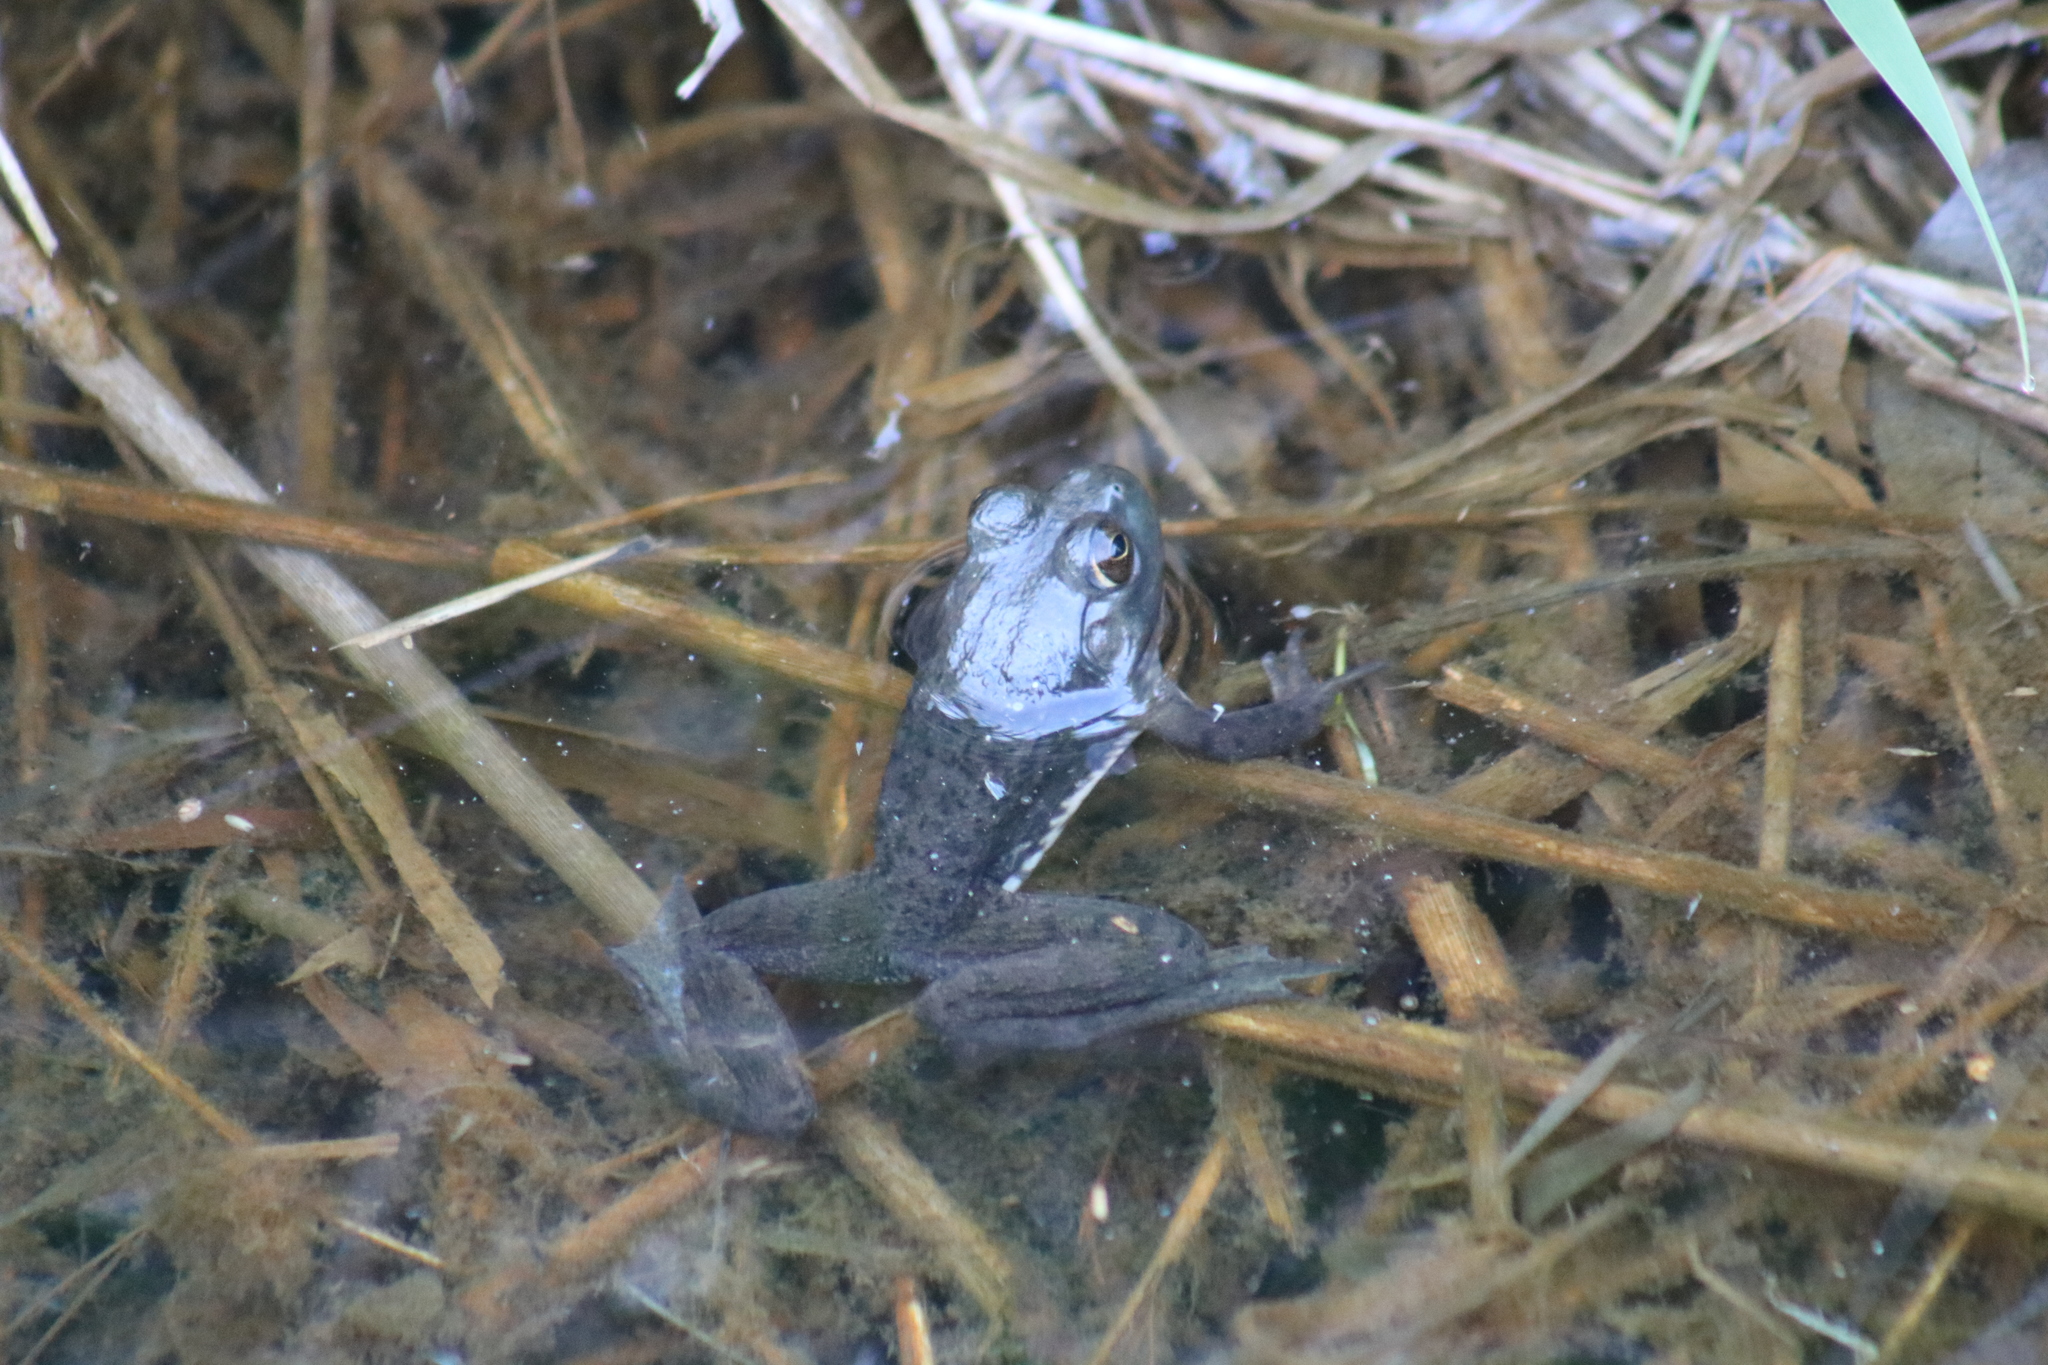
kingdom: Animalia
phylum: Chordata
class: Amphibia
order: Anura
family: Ranidae
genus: Lithobates
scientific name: Lithobates catesbeianus
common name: American bullfrog
